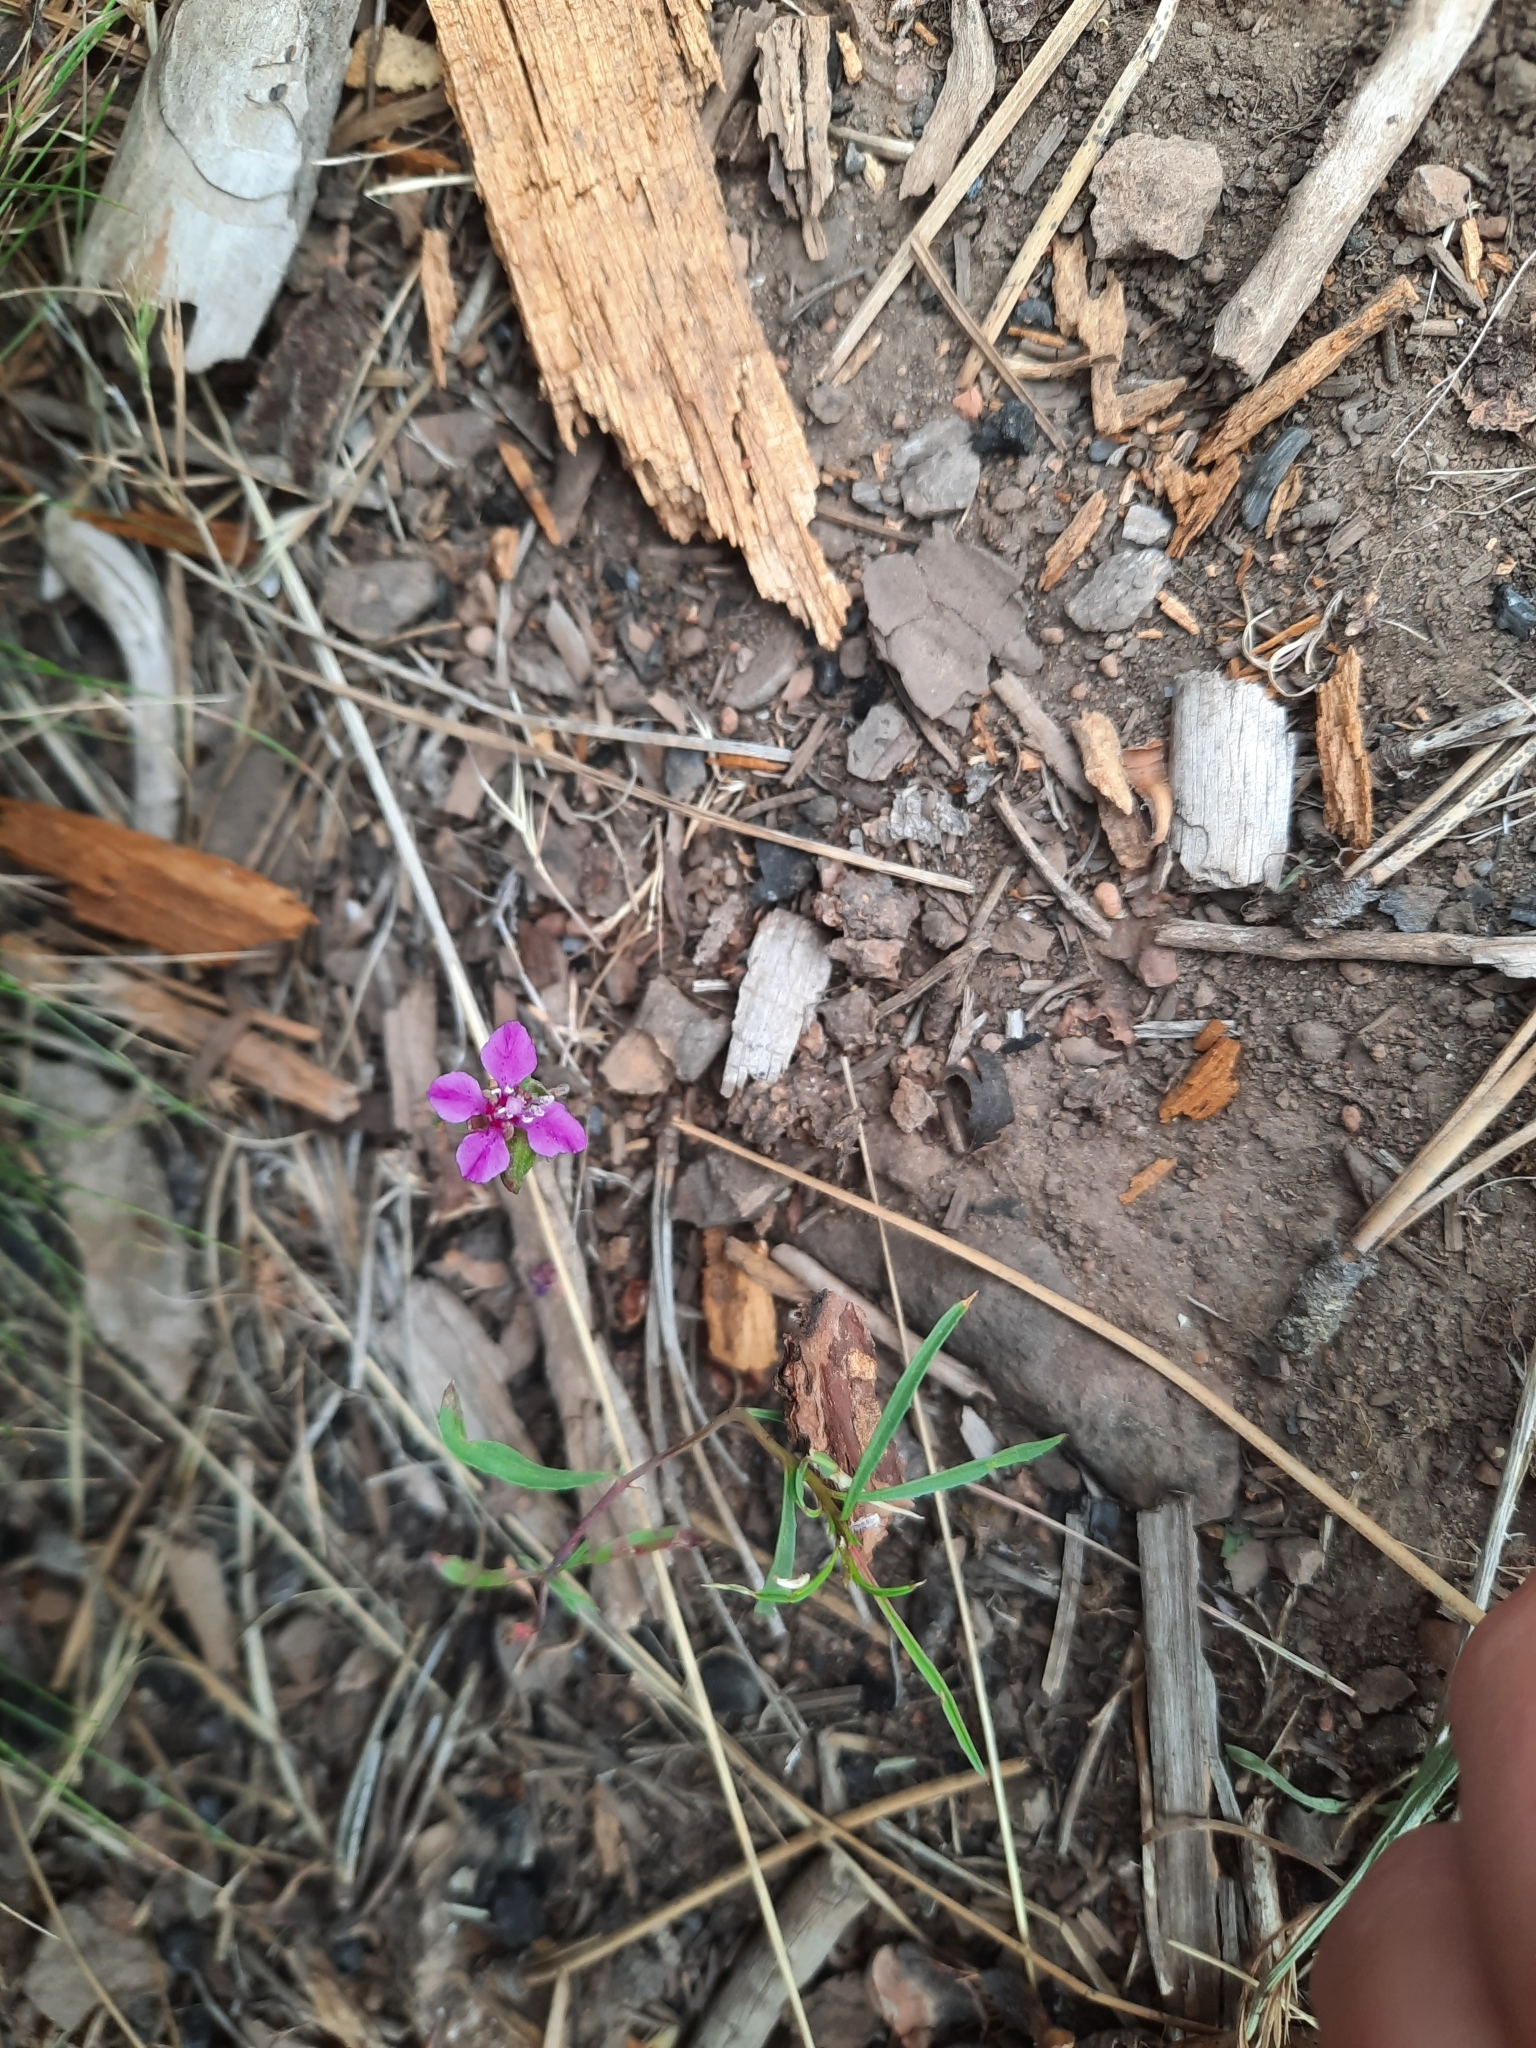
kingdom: Plantae
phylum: Tracheophyta
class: Magnoliopsida
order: Myrtales
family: Onagraceae
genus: Clarkia
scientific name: Clarkia rhomboidea
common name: Broadleaf clarkia
